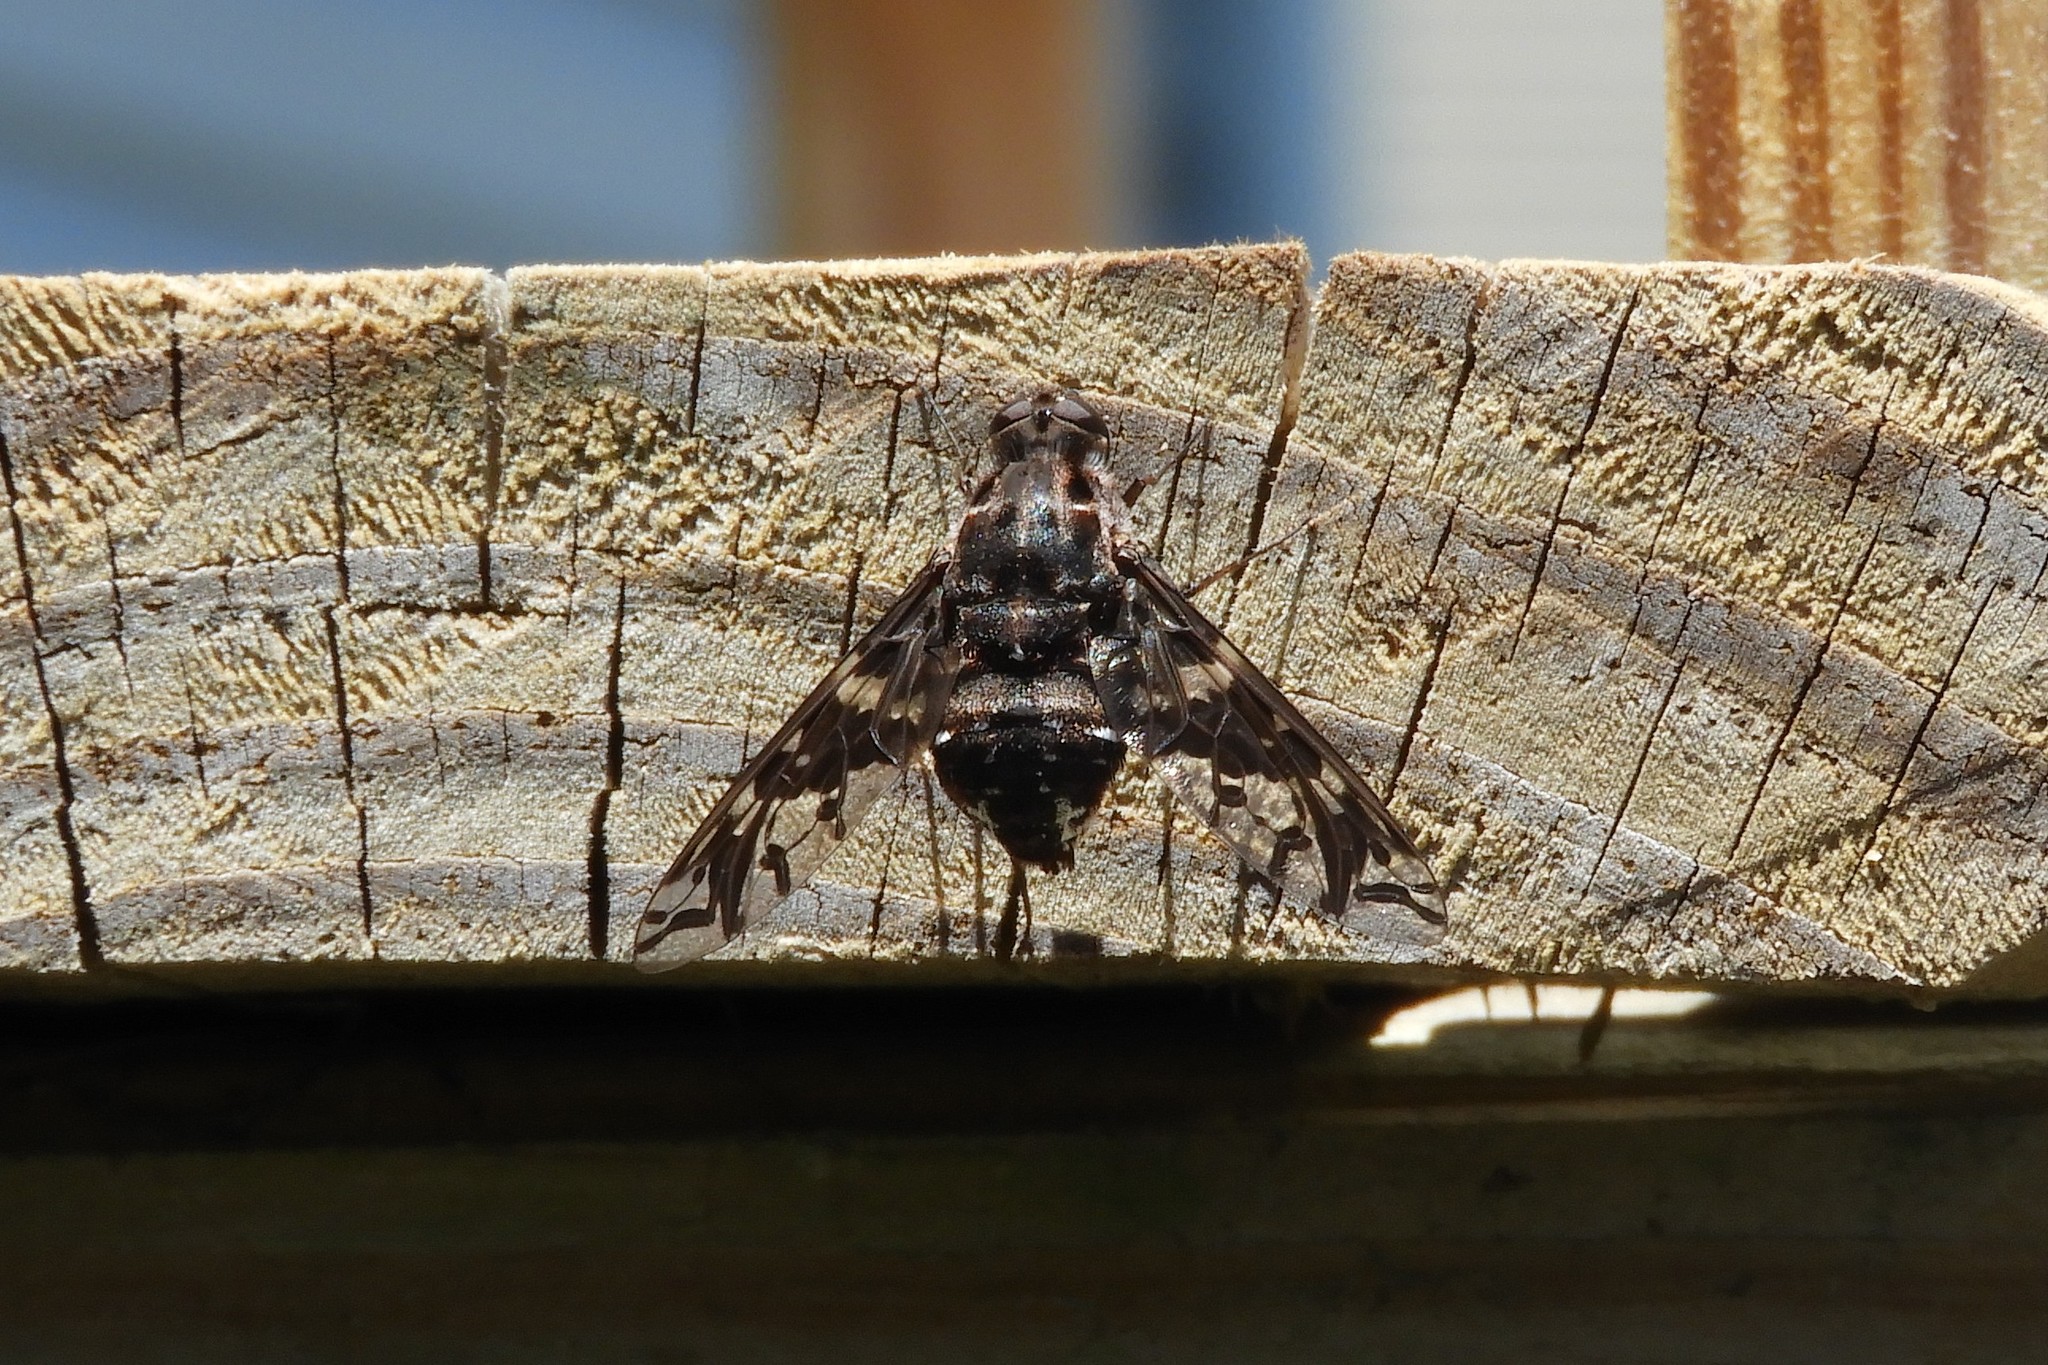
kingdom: Animalia
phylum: Arthropoda
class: Insecta
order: Diptera
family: Bombyliidae
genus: Xenox
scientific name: Xenox tigrinus
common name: Tiger bee fly
